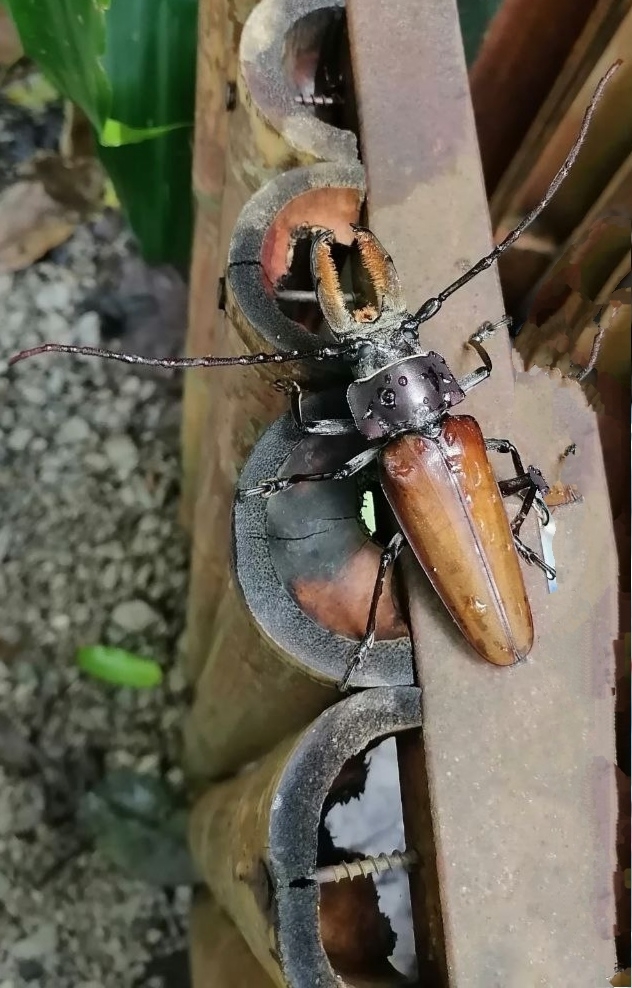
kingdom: Animalia
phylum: Arthropoda
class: Insecta
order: Coleoptera
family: Cerambycidae
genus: Callipogon
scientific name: Callipogon senex
